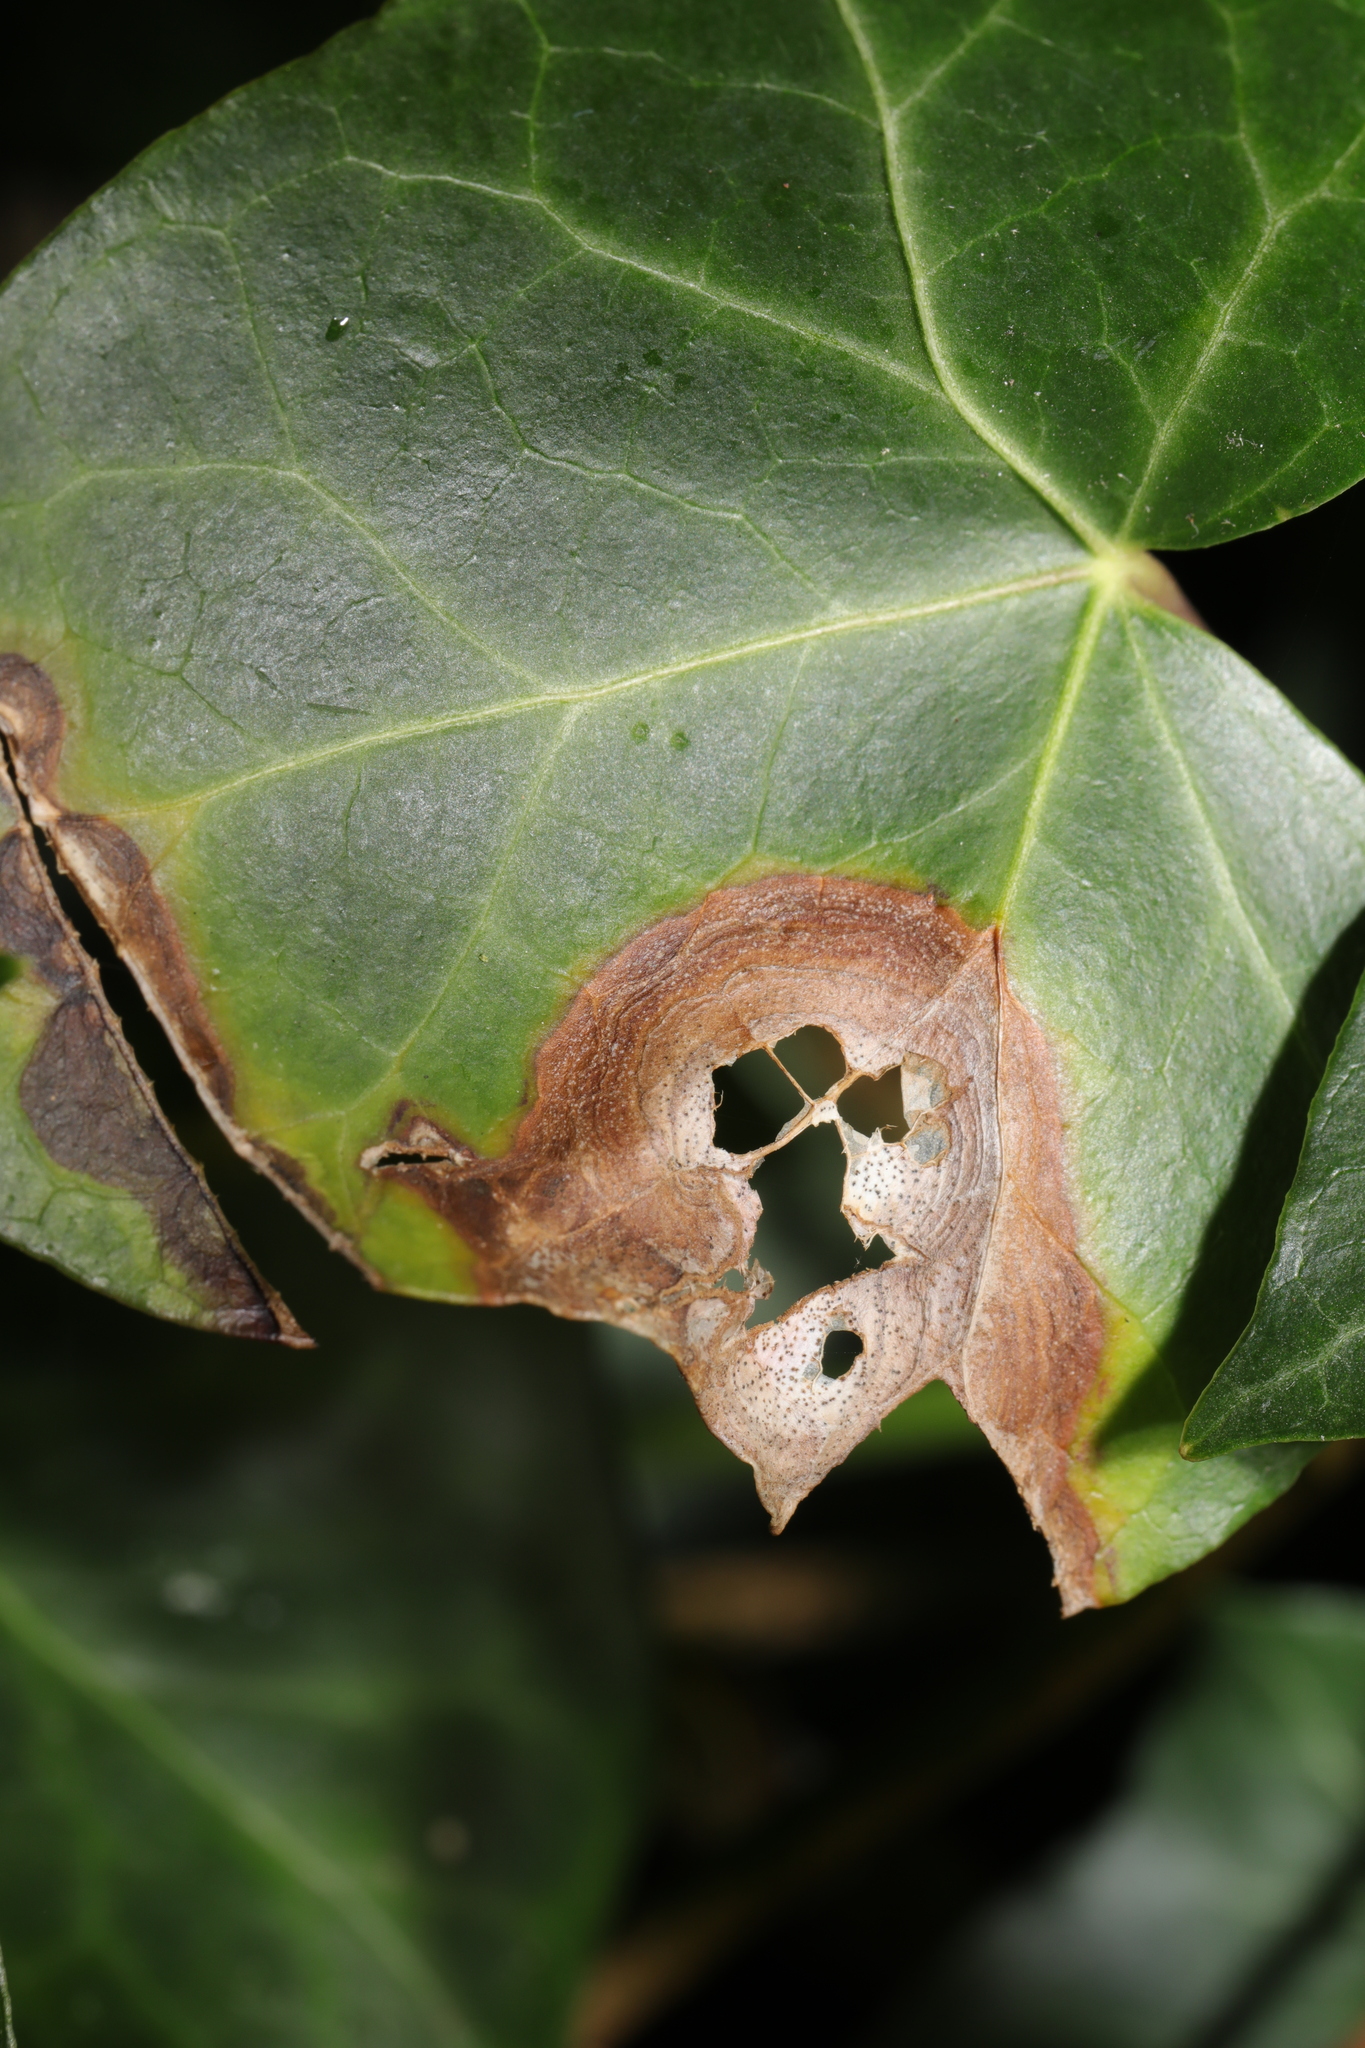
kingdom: Fungi
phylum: Ascomycota
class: Dothideomycetes
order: Pleosporales
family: Didymellaceae
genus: Boeremia
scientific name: Boeremia hedericola
